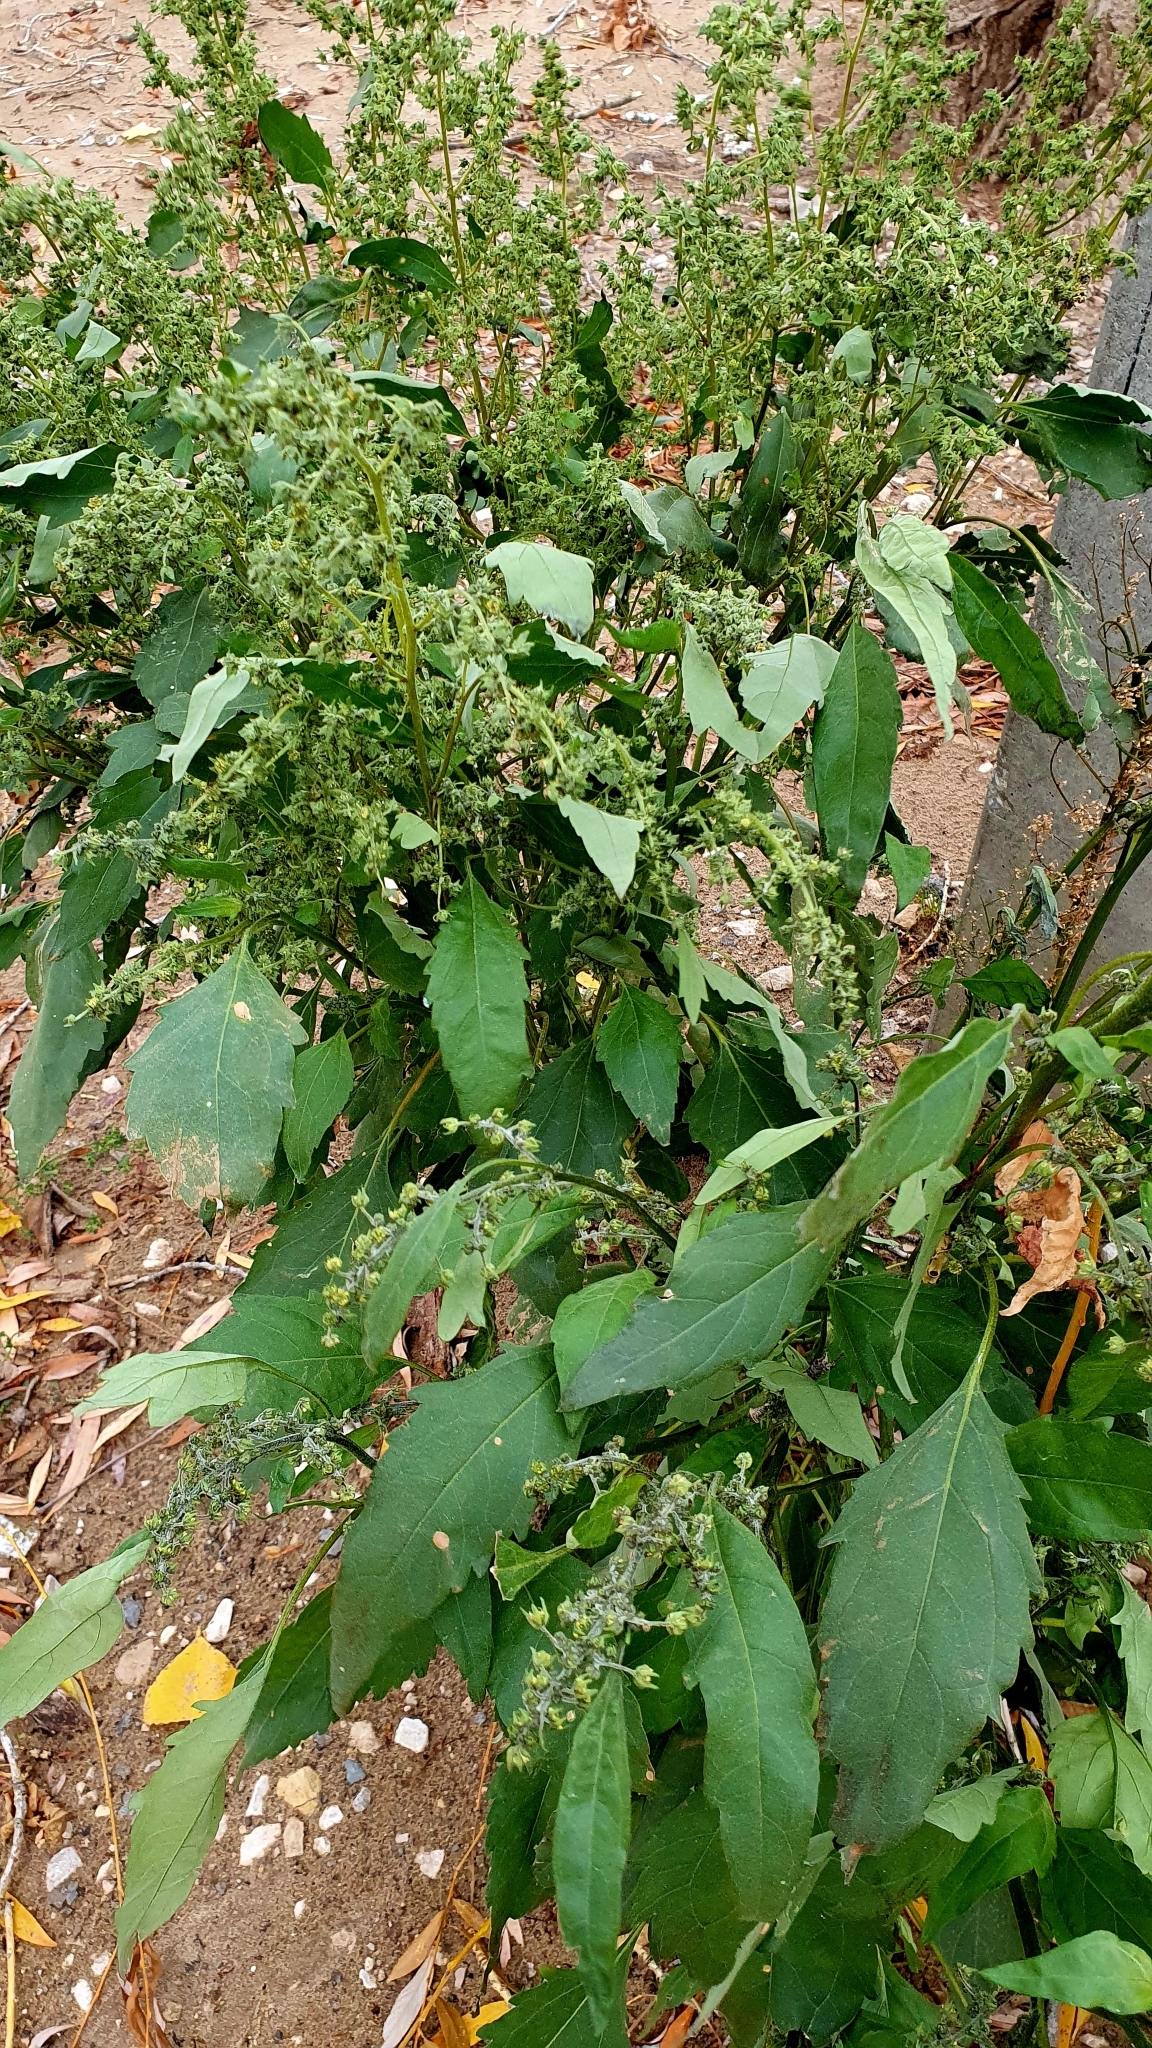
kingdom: Plantae
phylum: Tracheophyta
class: Magnoliopsida
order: Asterales
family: Asteraceae
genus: Cyclachaena
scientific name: Cyclachaena xanthiifolia
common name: Giant sumpweed
